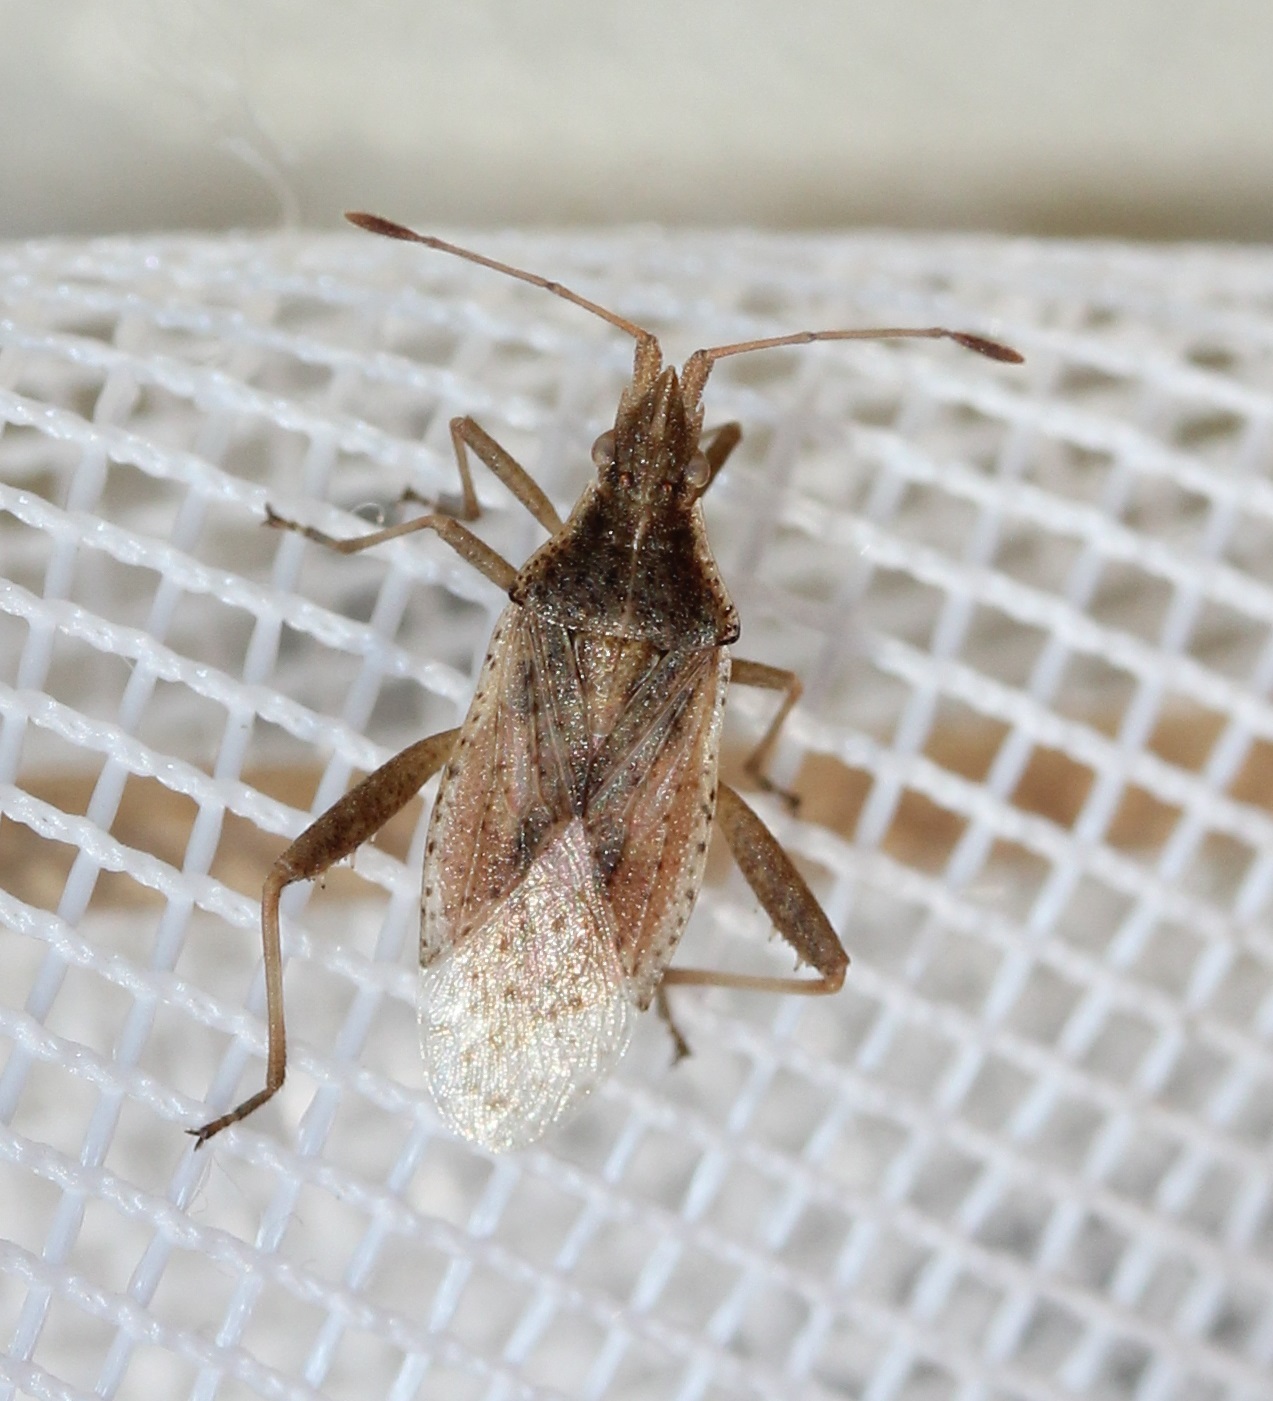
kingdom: Animalia
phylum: Arthropoda
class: Insecta
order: Hemiptera
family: Rhopalidae
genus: Harmostes
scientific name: Harmostes reflexulus
